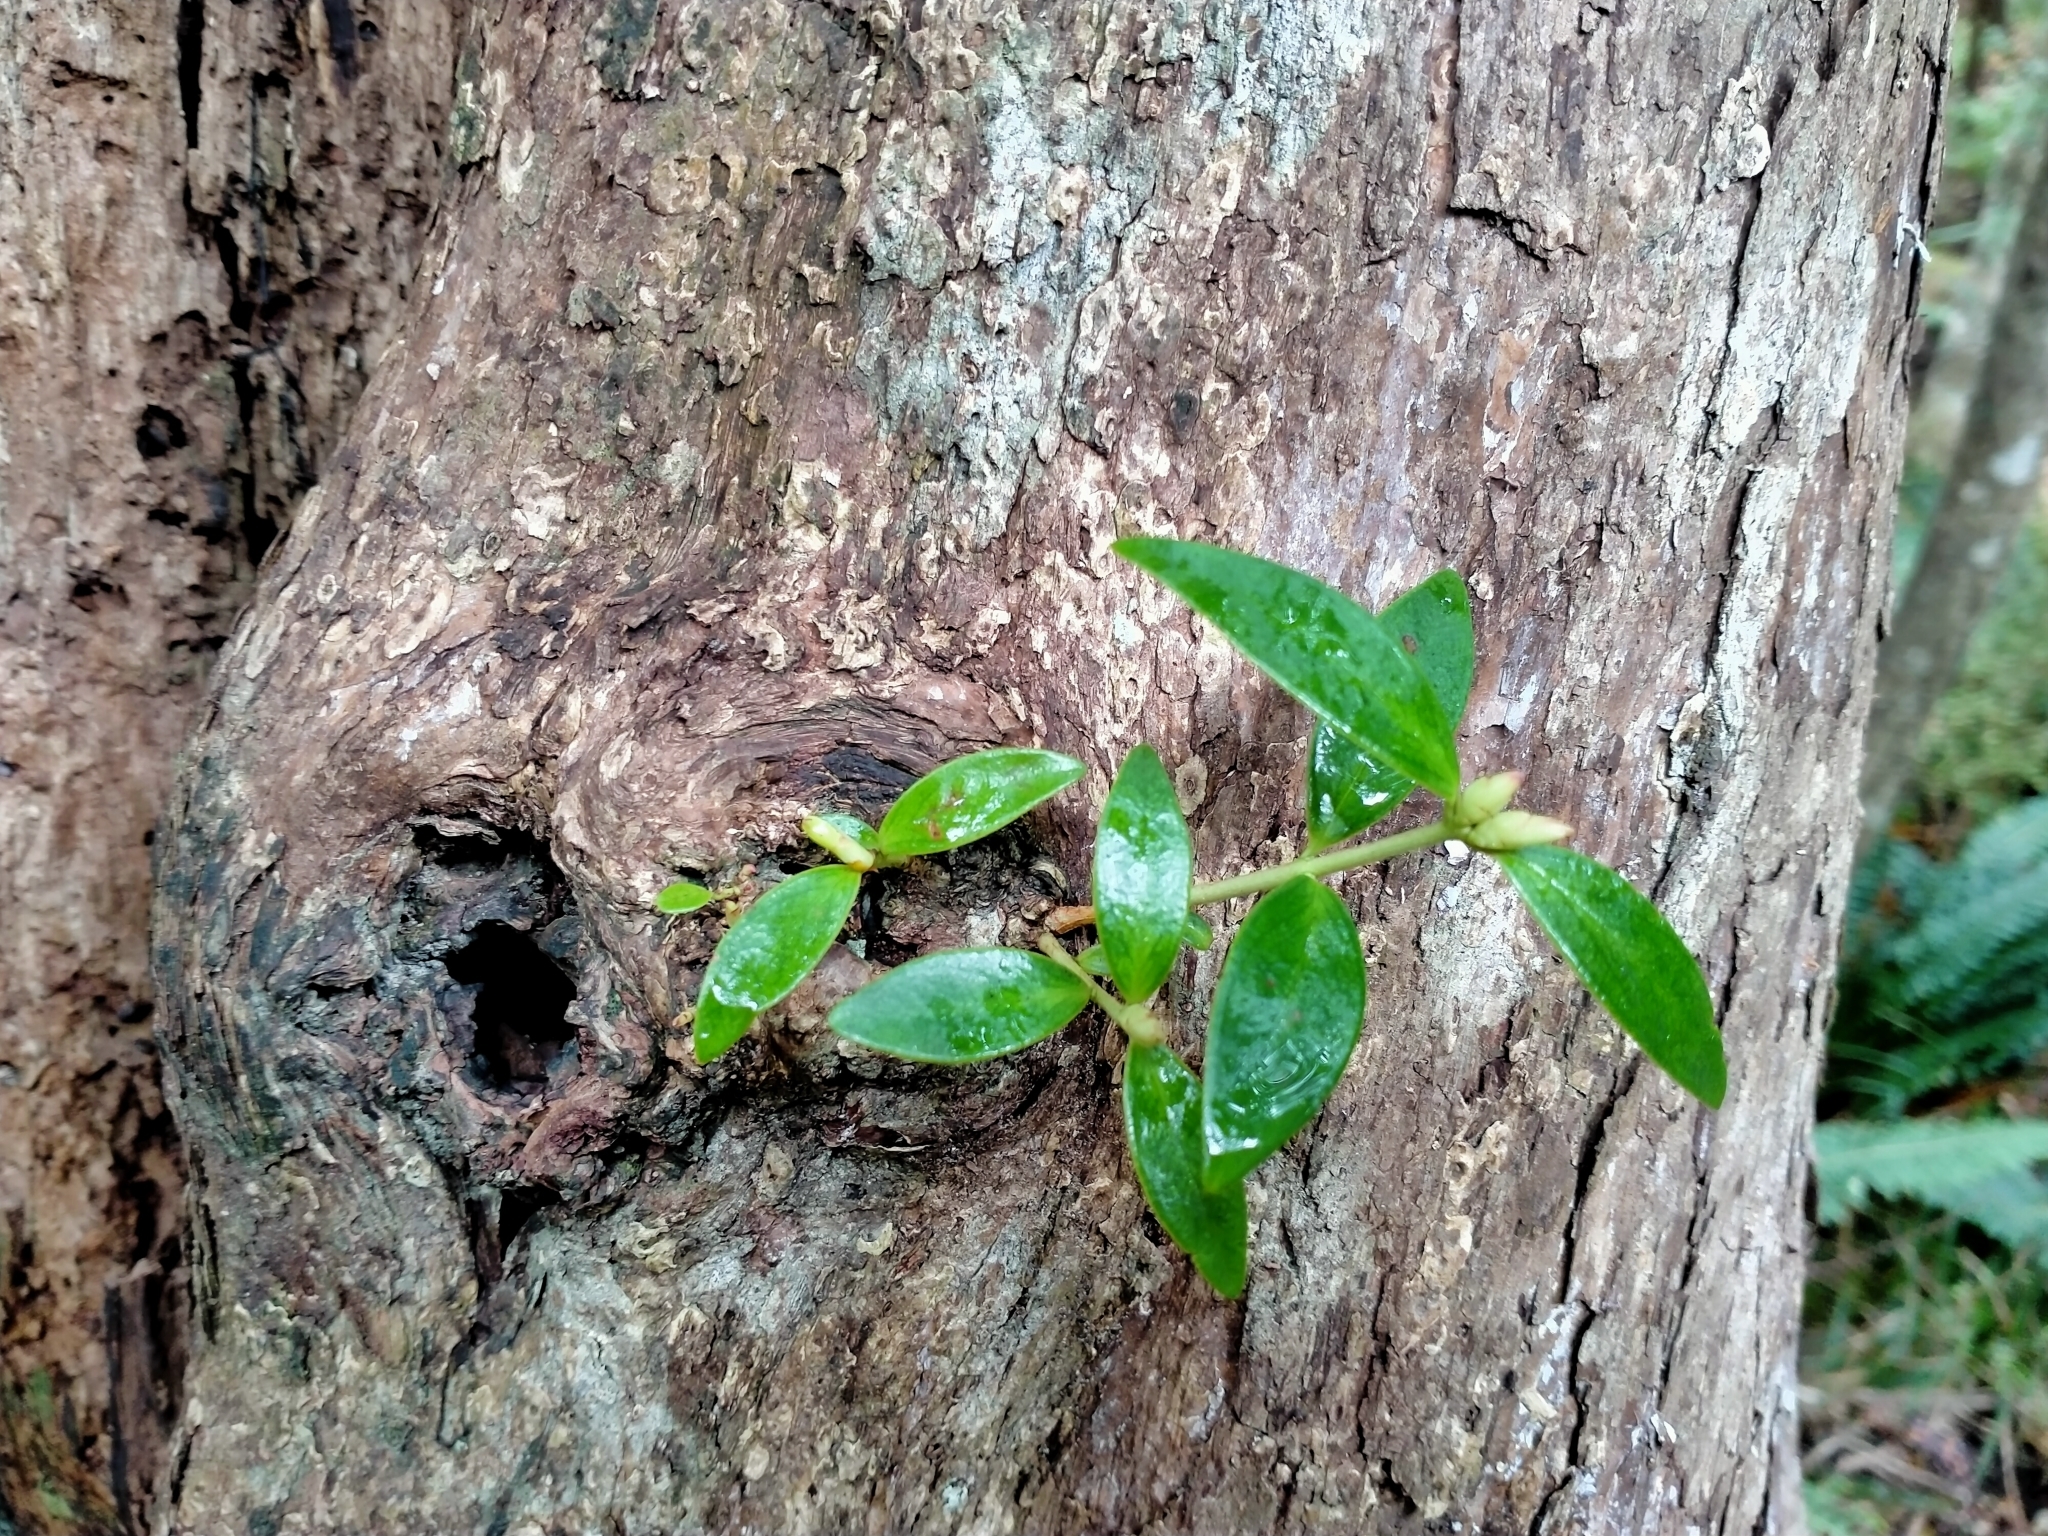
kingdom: Plantae
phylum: Tracheophyta
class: Magnoliopsida
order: Myrtales
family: Myrtaceae
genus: Metrosideros
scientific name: Metrosideros umbellata
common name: Southern rata
